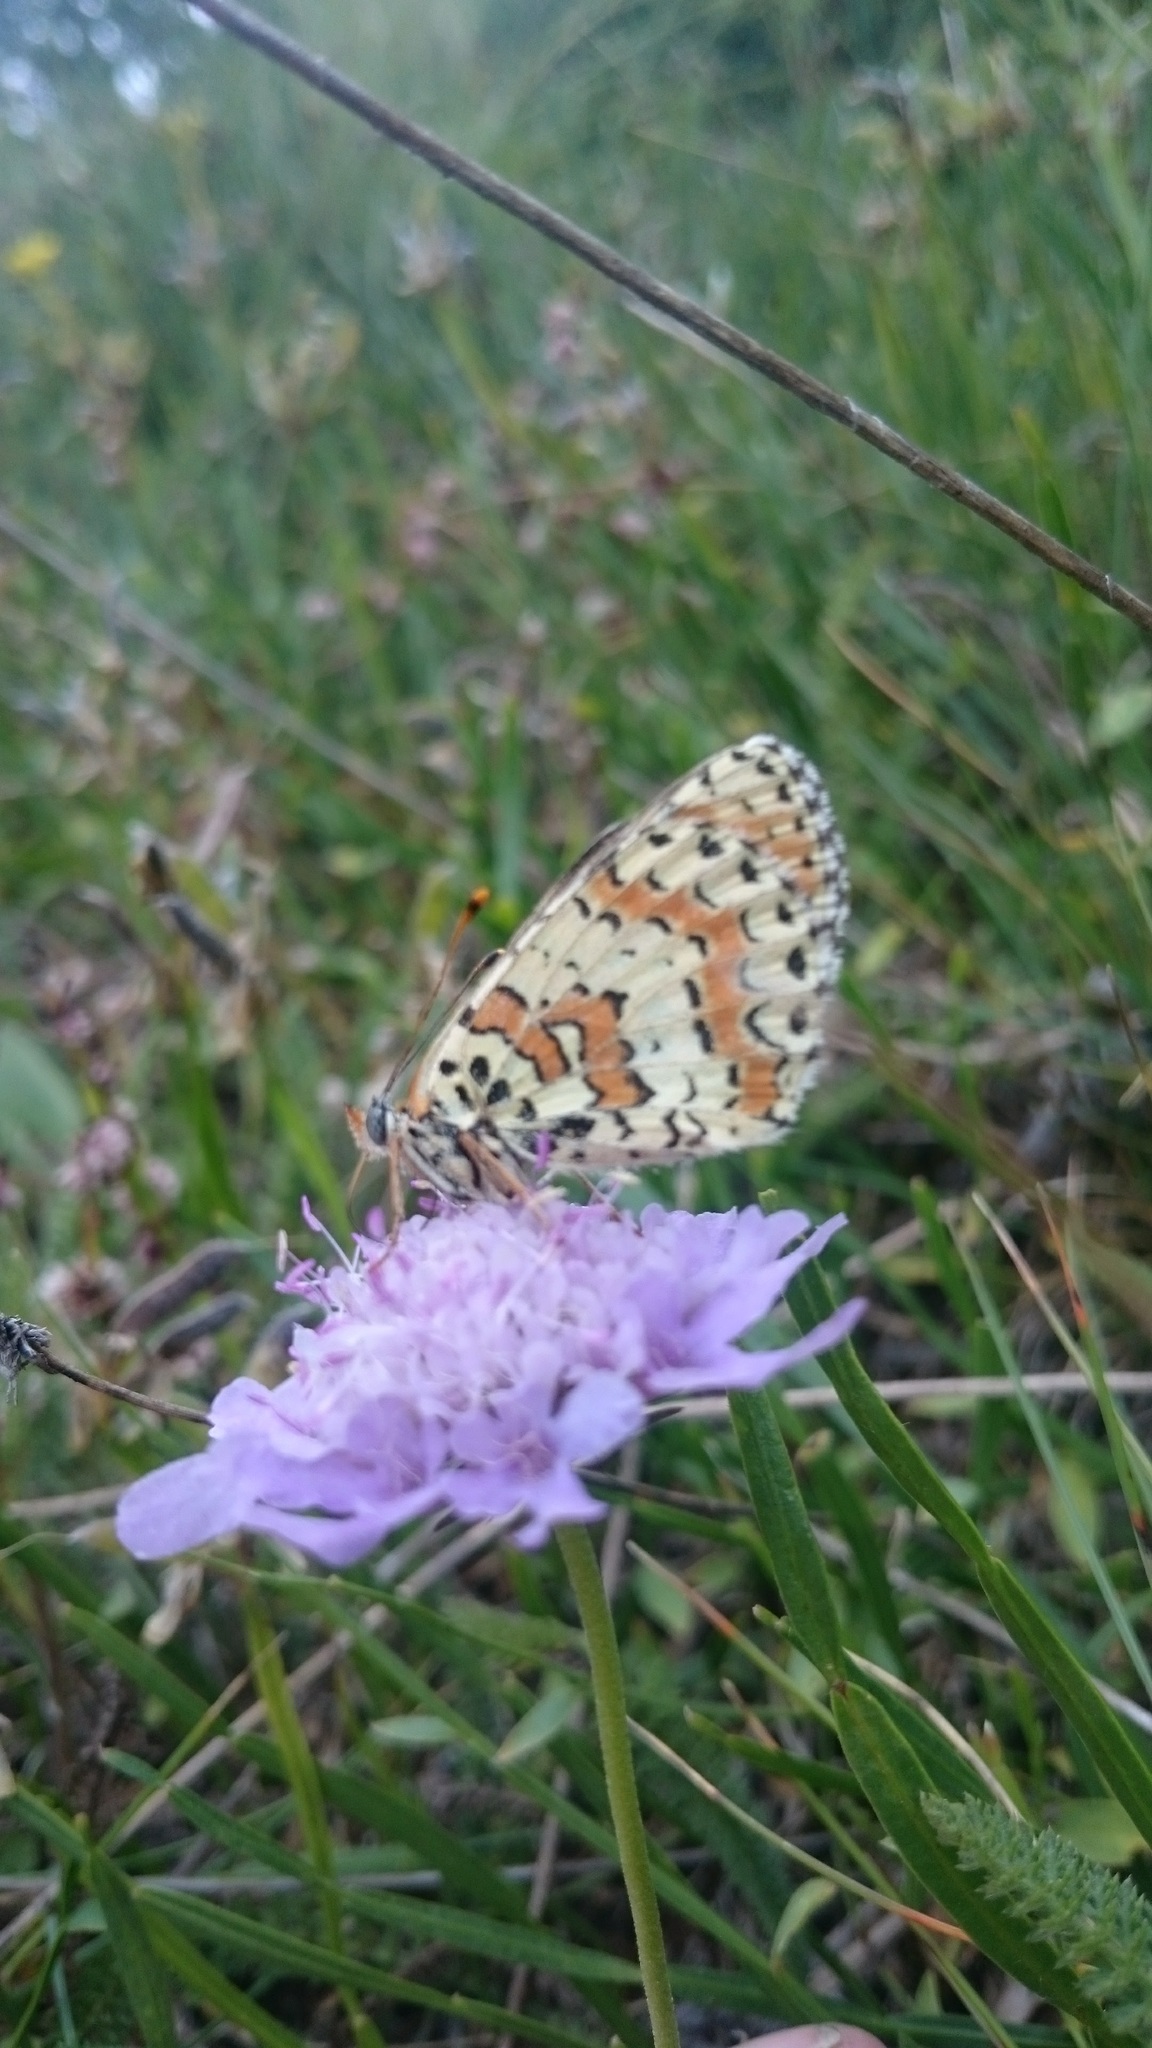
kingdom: Animalia
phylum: Arthropoda
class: Insecta
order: Lepidoptera
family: Nymphalidae
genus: Melitaea
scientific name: Melitaea didyma
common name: Spotted fritillary
